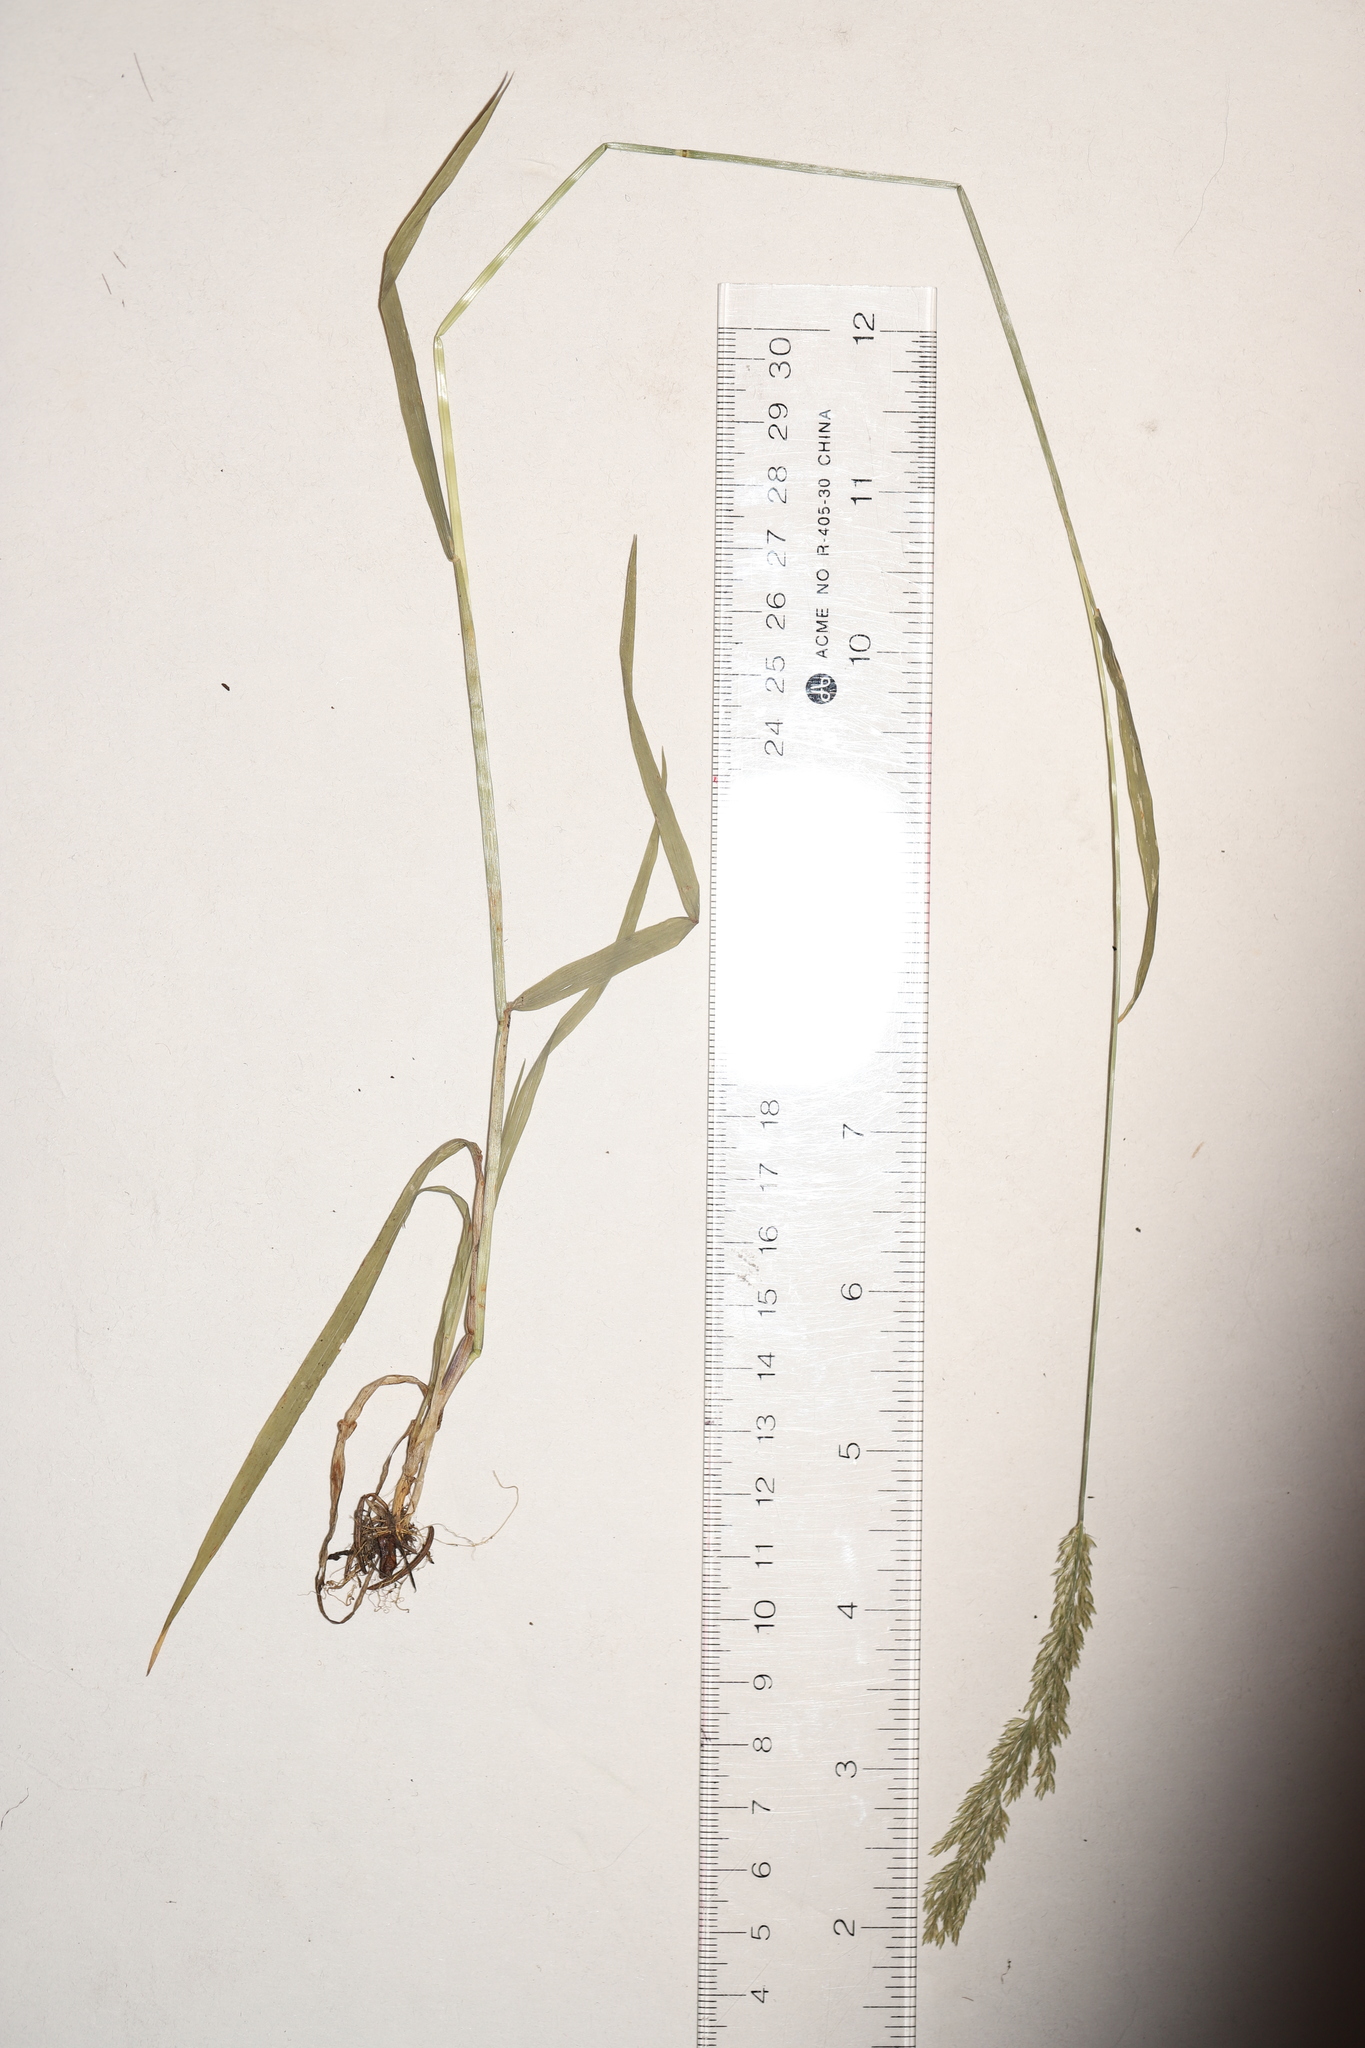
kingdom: Plantae
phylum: Tracheophyta
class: Liliopsida
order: Poales
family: Poaceae
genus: Sphenopholis
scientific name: Sphenopholis intermedia
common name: Intermediate eaton's grass
